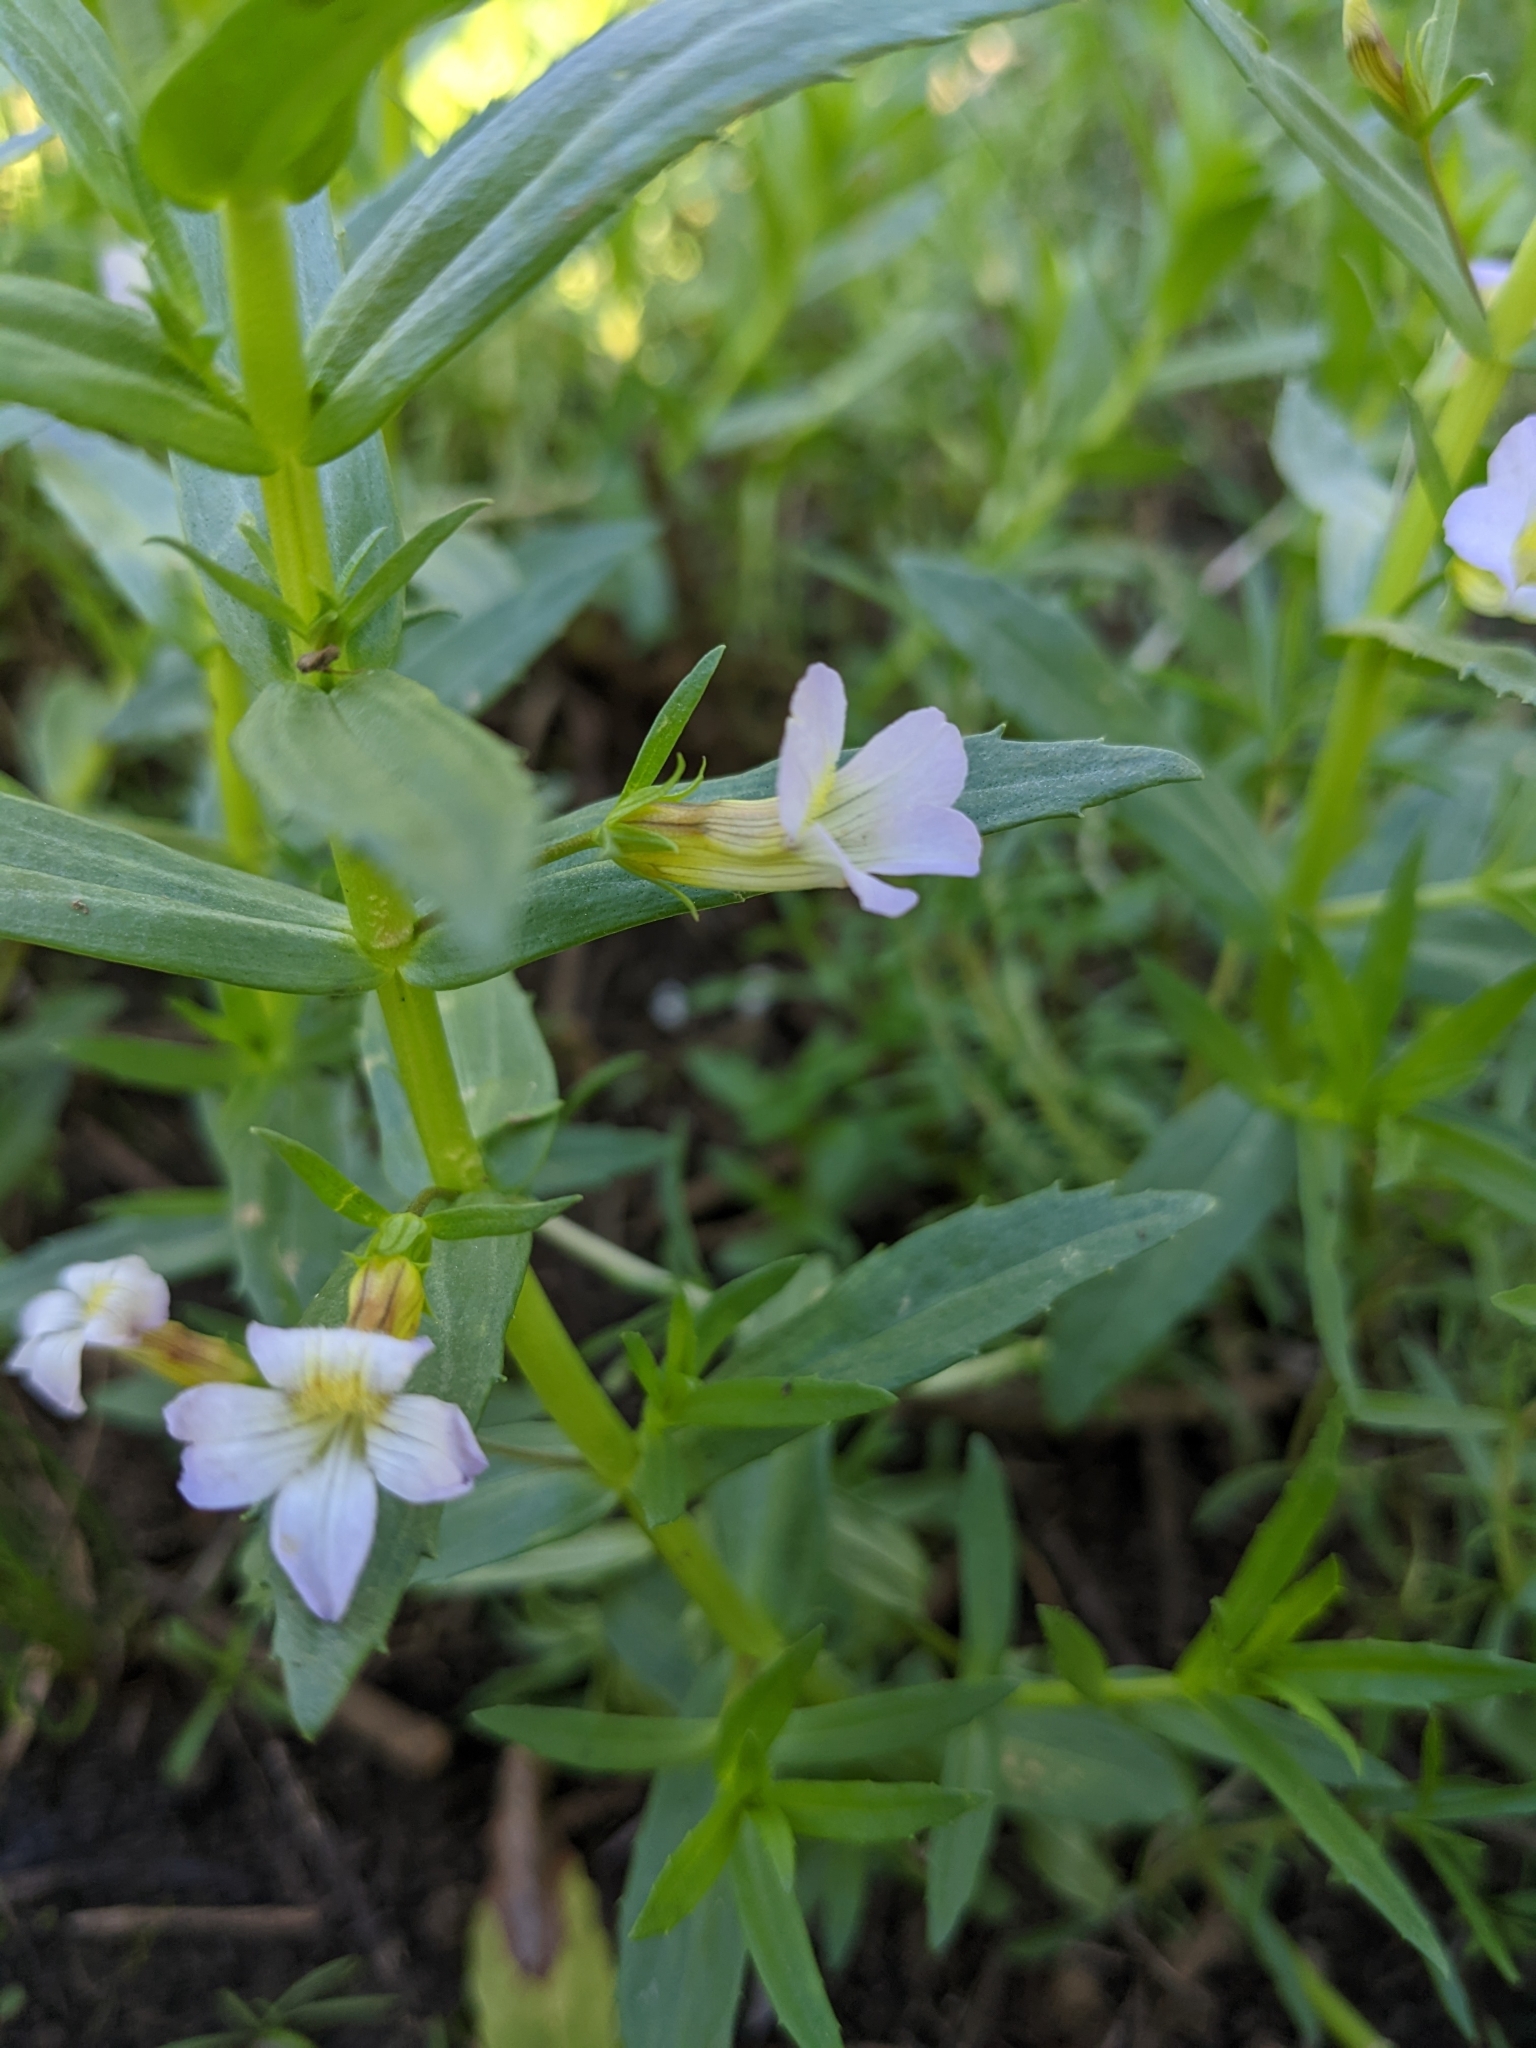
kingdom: Plantae
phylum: Tracheophyta
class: Magnoliopsida
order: Lamiales
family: Plantaginaceae
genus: Gratiola
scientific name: Gratiola officinalis
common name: Gratiola
